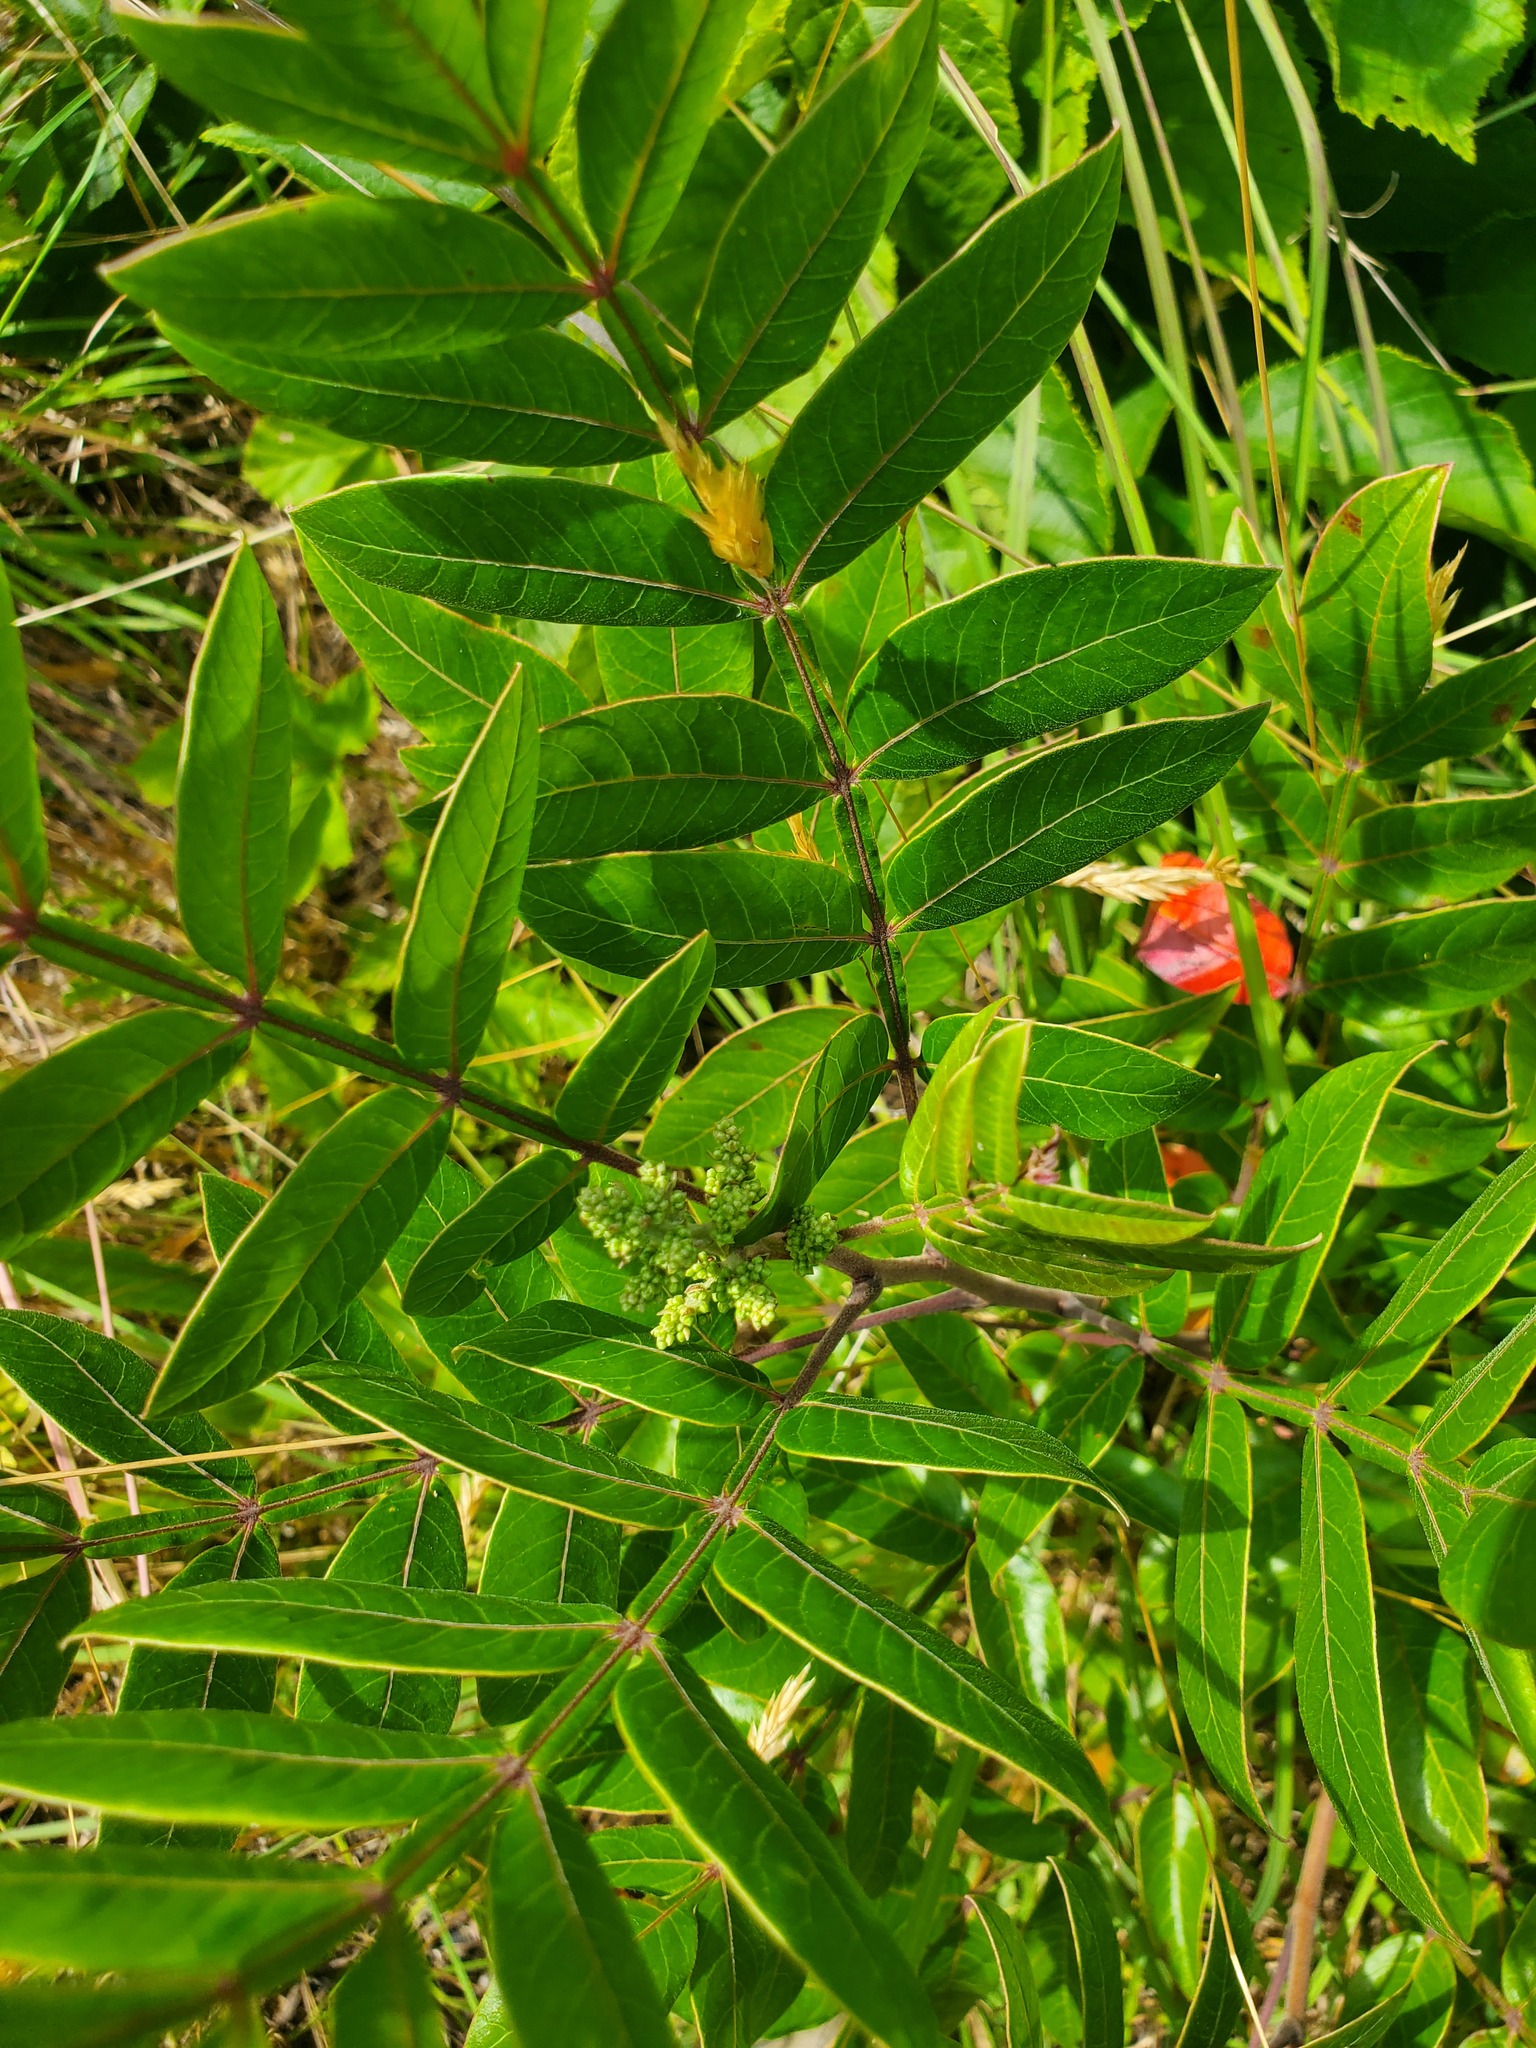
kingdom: Plantae
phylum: Tracheophyta
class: Magnoliopsida
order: Sapindales
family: Anacardiaceae
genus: Rhus
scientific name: Rhus copallina
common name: Shining sumac
